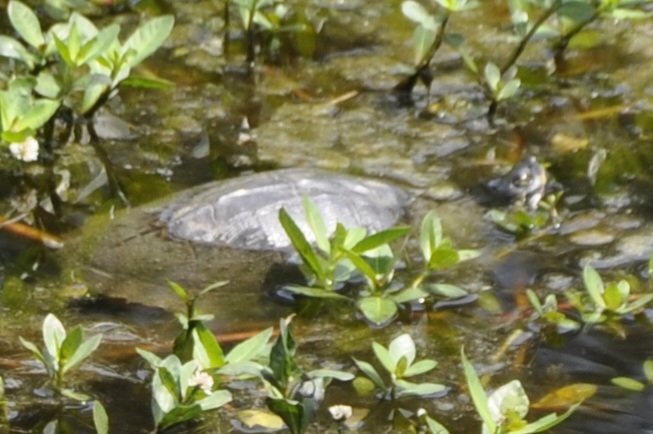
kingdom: Animalia
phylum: Chordata
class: Testudines
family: Emydidae
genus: Trachemys
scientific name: Trachemys scripta
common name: Slider
